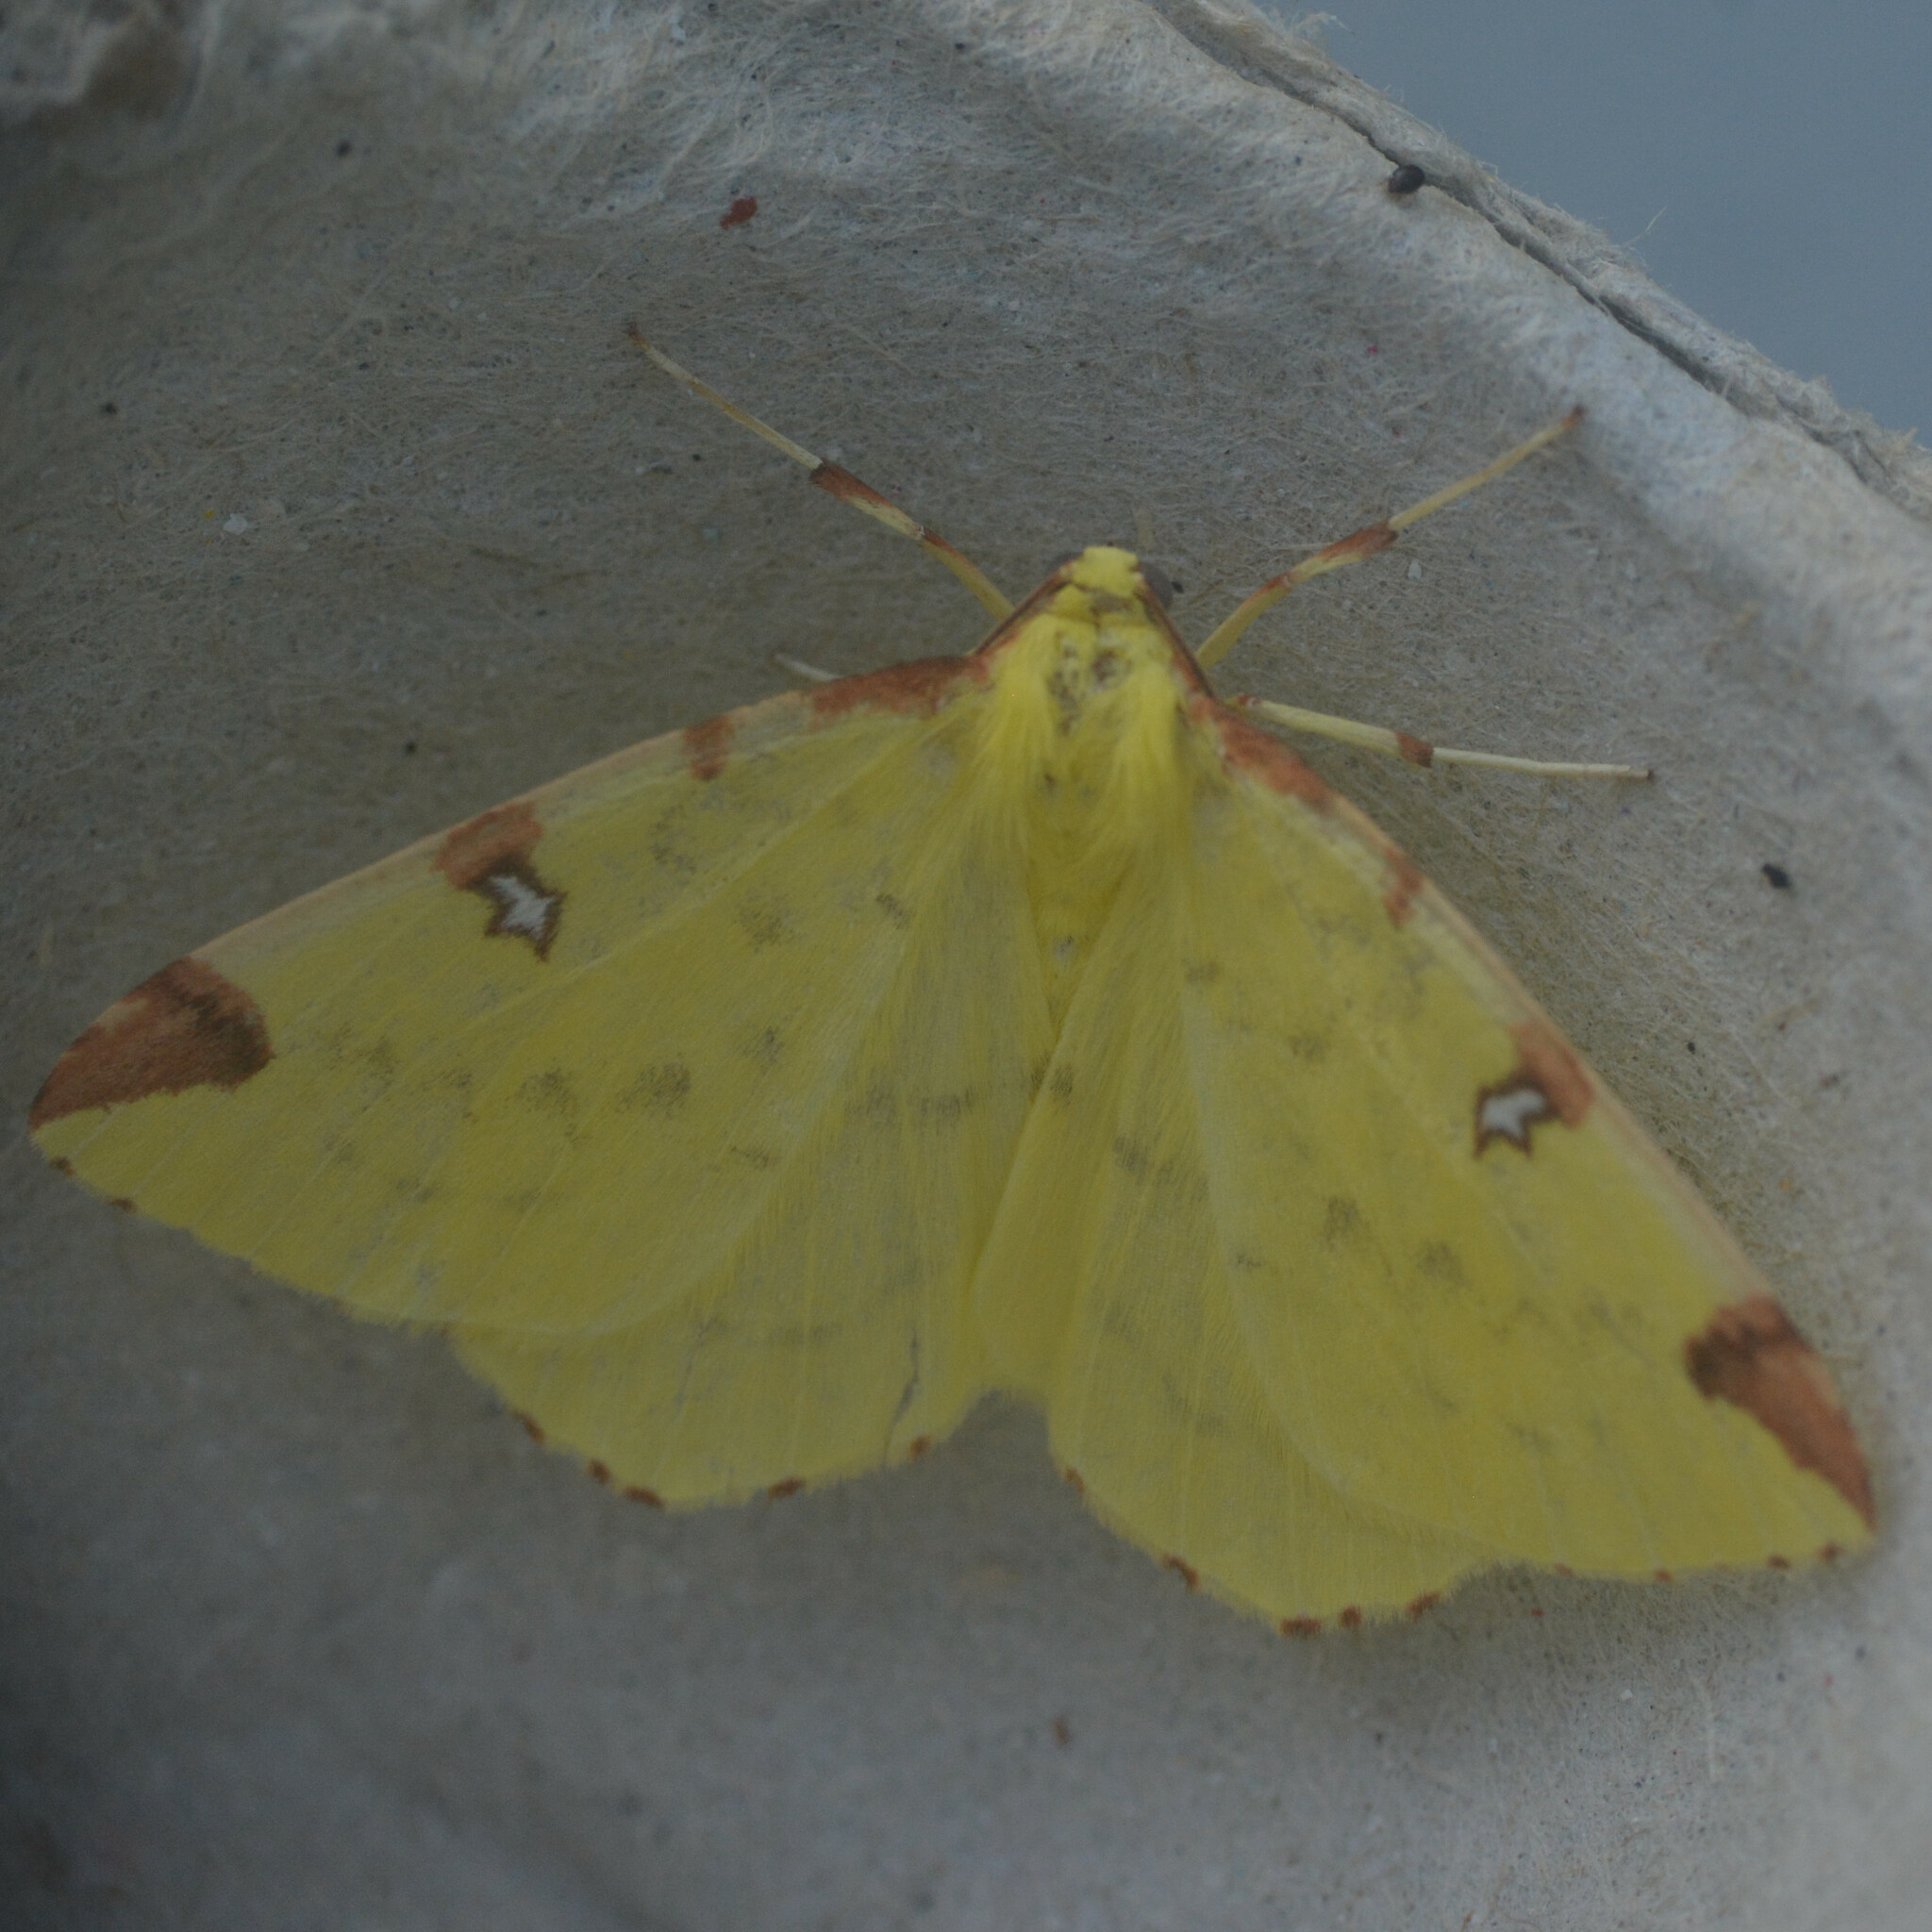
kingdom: Animalia
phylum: Arthropoda
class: Insecta
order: Lepidoptera
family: Geometridae
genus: Opisthograptis
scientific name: Opisthograptis luteolata
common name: Brimstone moth
